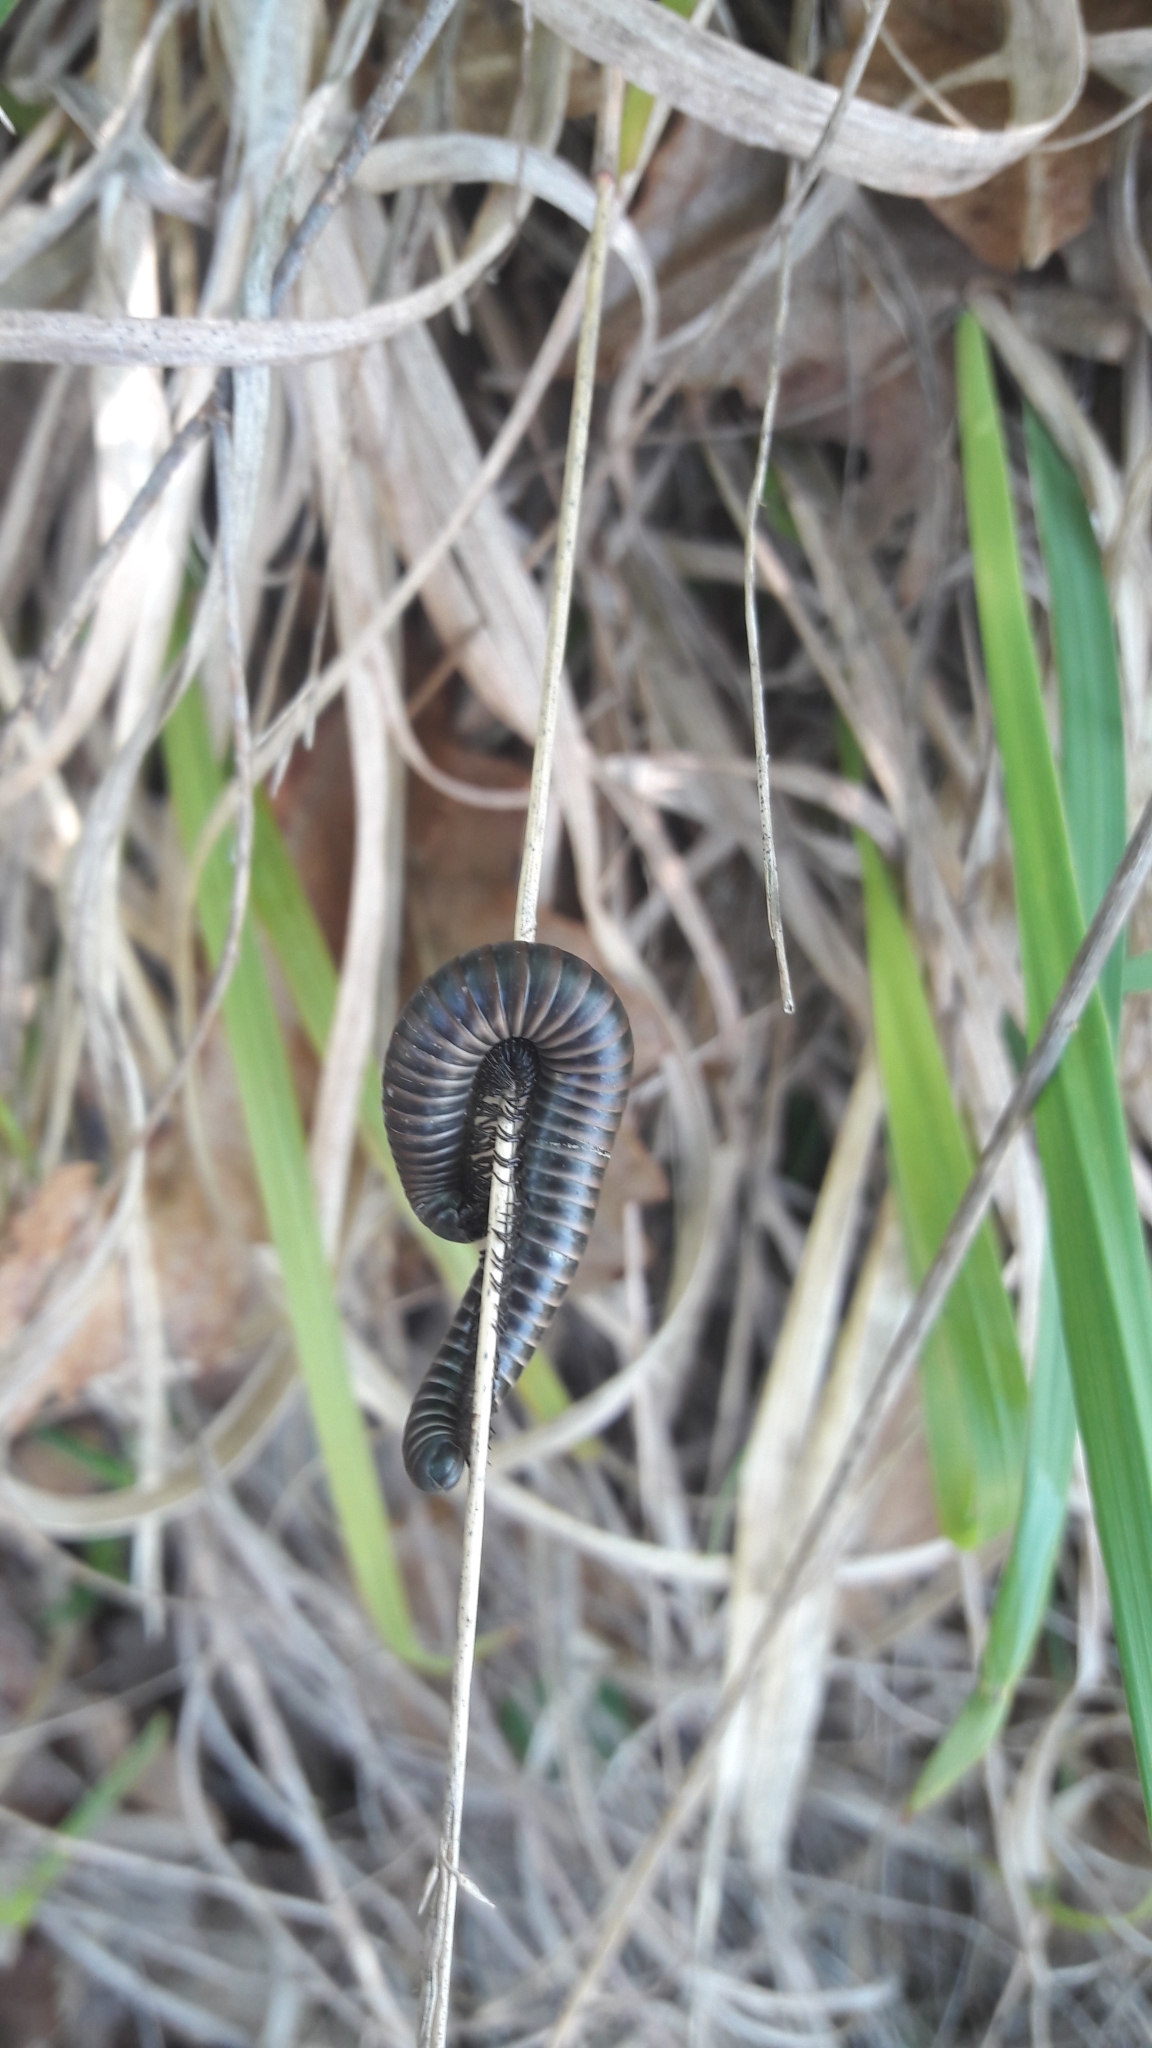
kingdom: Animalia
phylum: Arthropoda
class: Diplopoda
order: Julida
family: Julidae
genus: Ommatoiulus
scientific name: Ommatoiulus rutilans
